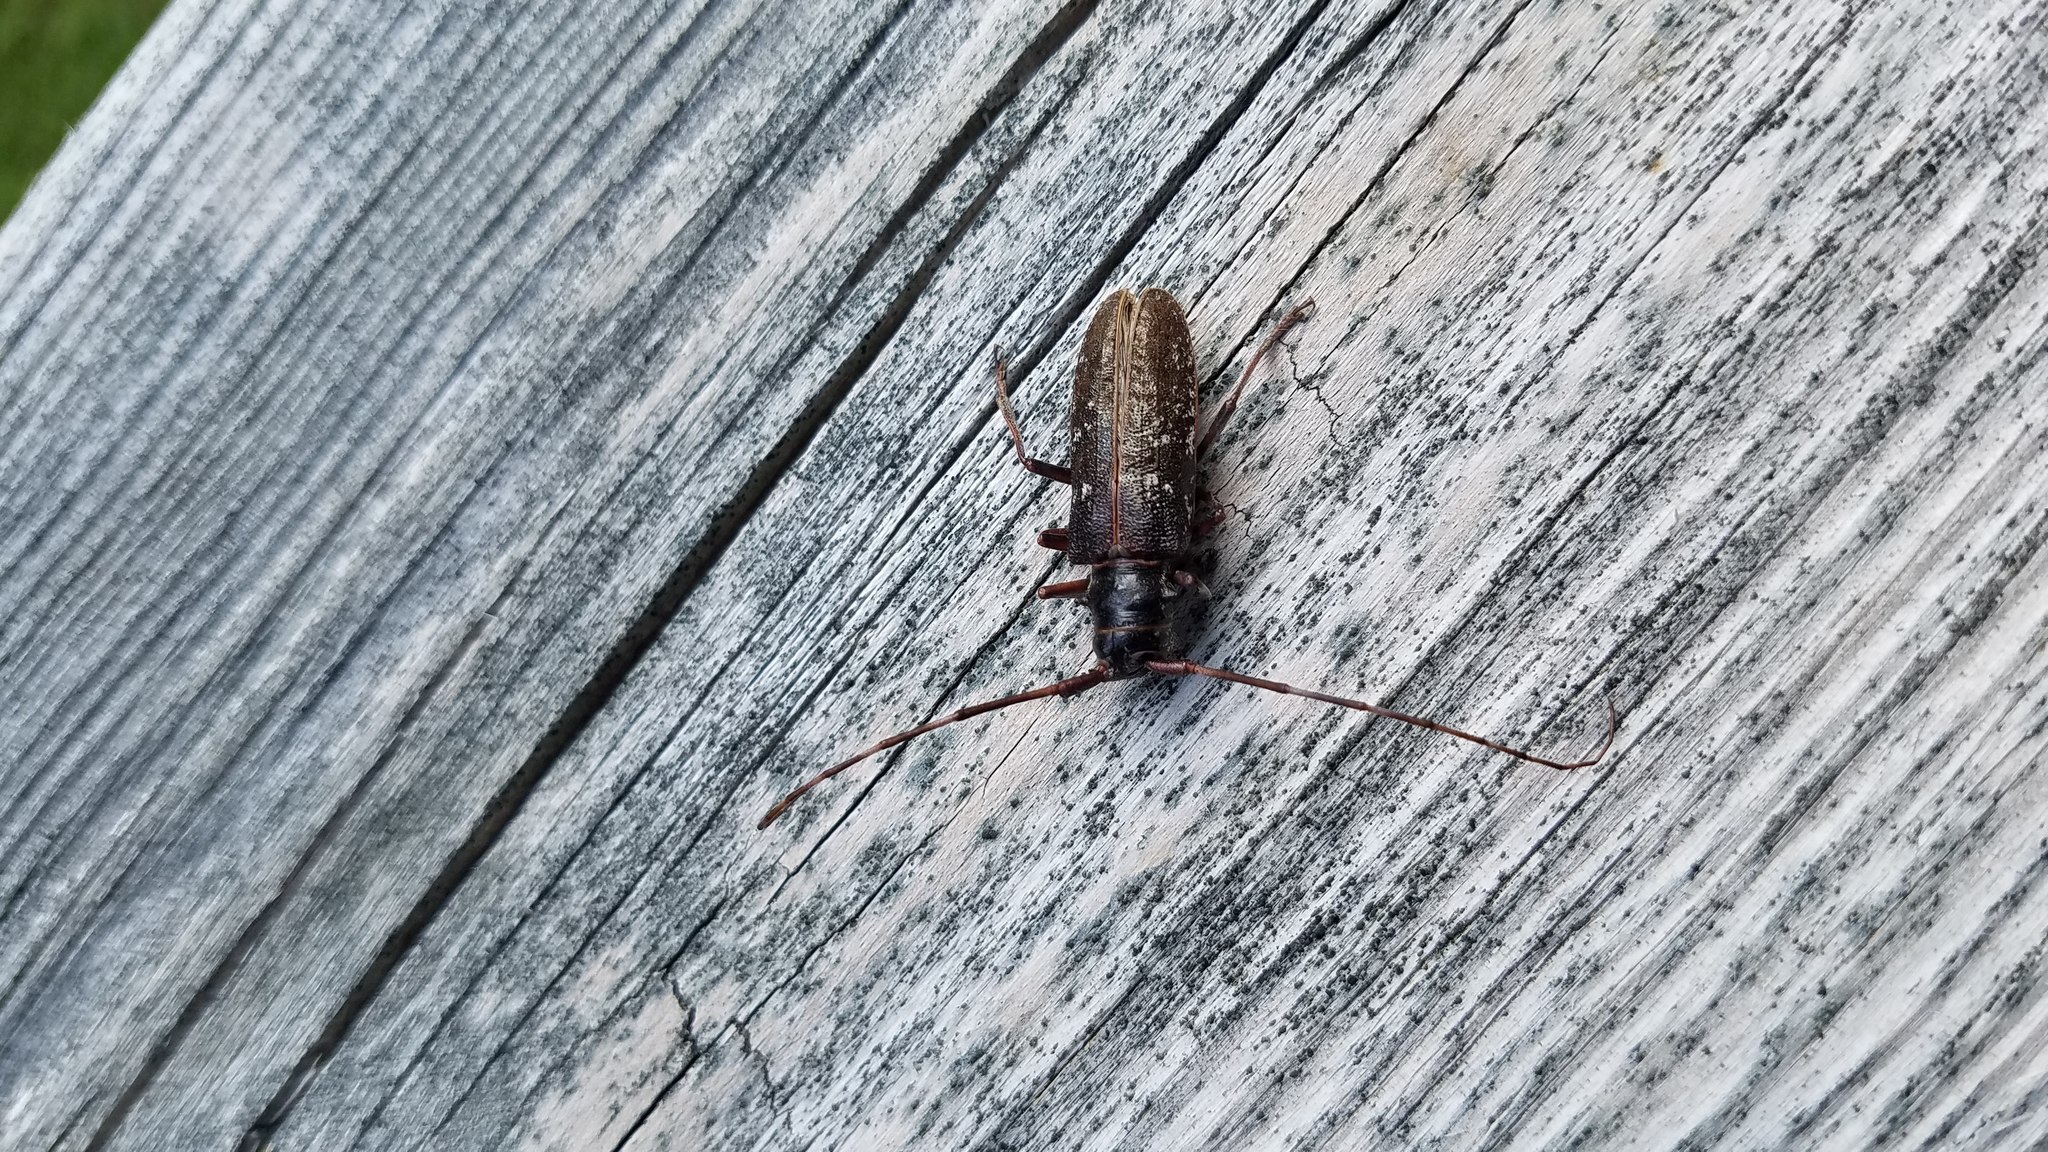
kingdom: Animalia
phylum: Arthropoda
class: Insecta
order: Coleoptera
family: Cerambycidae
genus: Monochamus
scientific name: Monochamus
